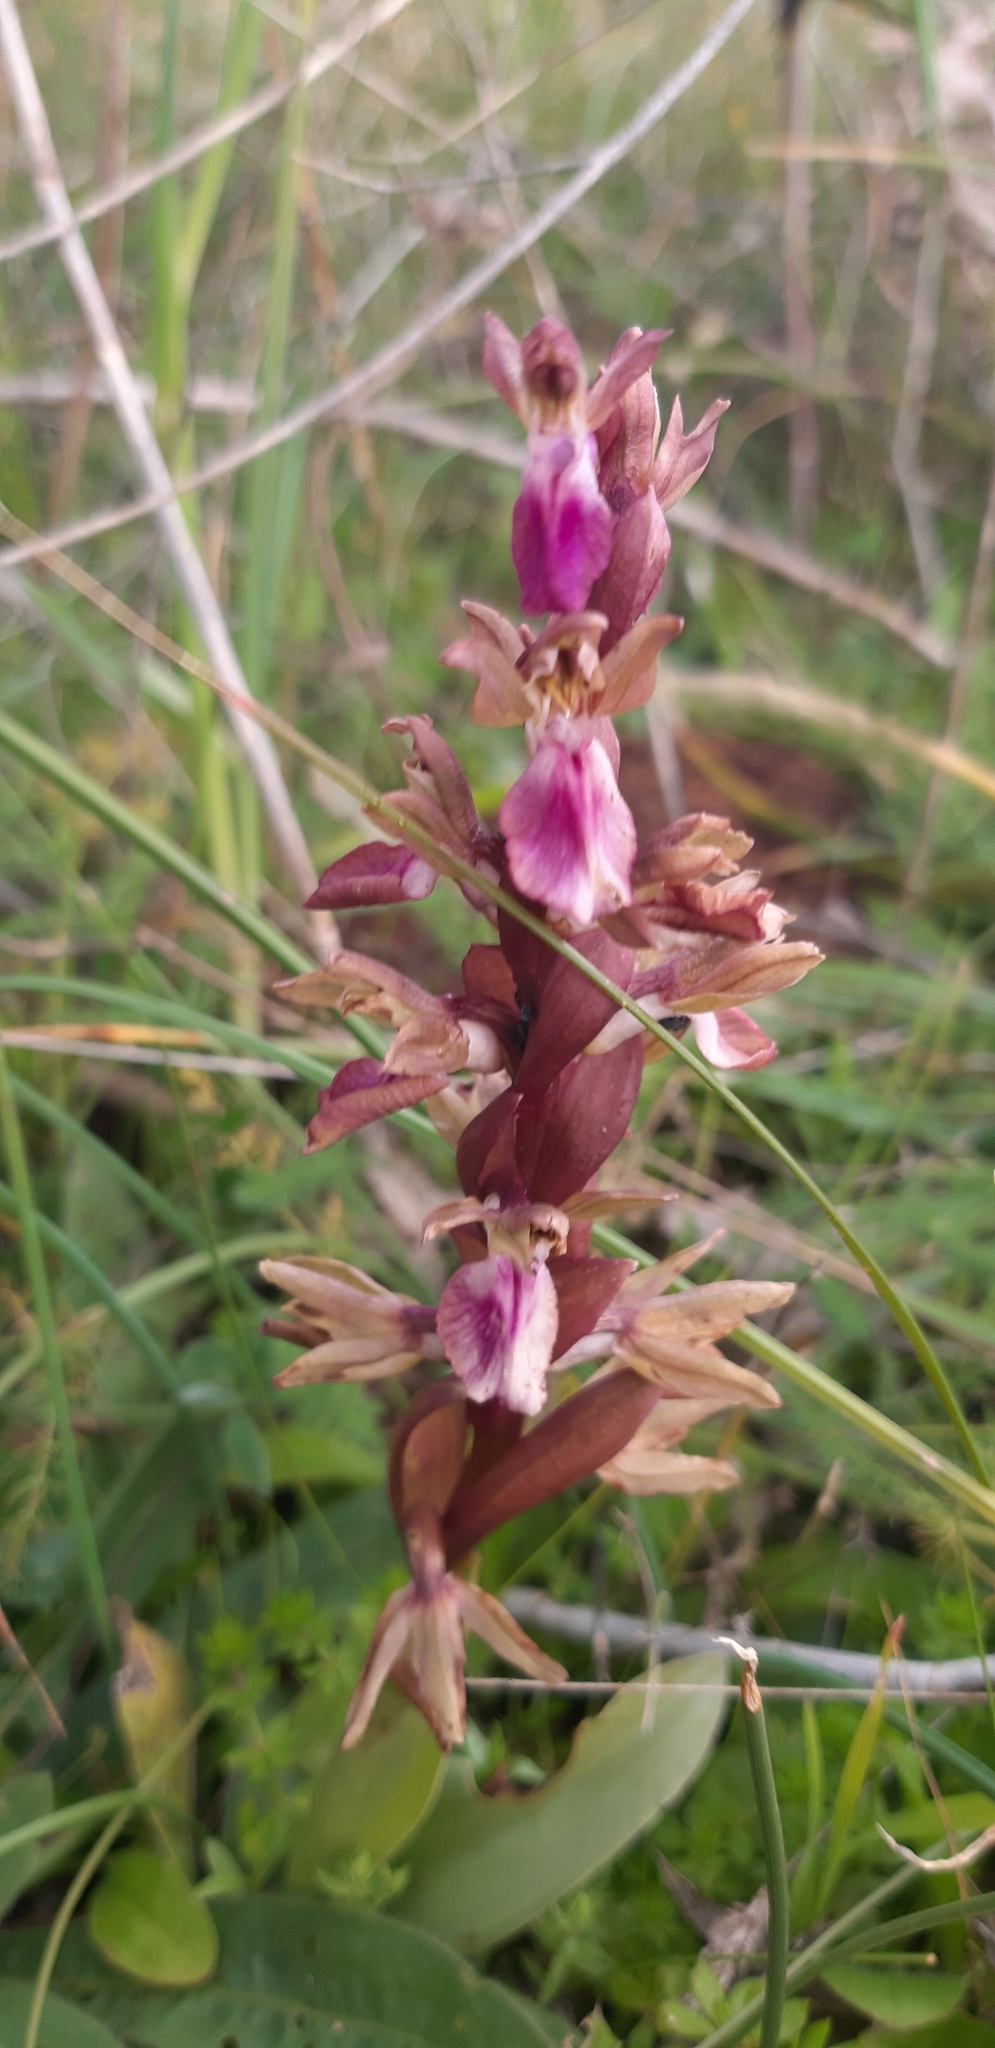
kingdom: Plantae
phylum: Tracheophyta
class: Liliopsida
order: Asparagales
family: Orchidaceae
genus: Anacamptis
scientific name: Anacamptis collina
